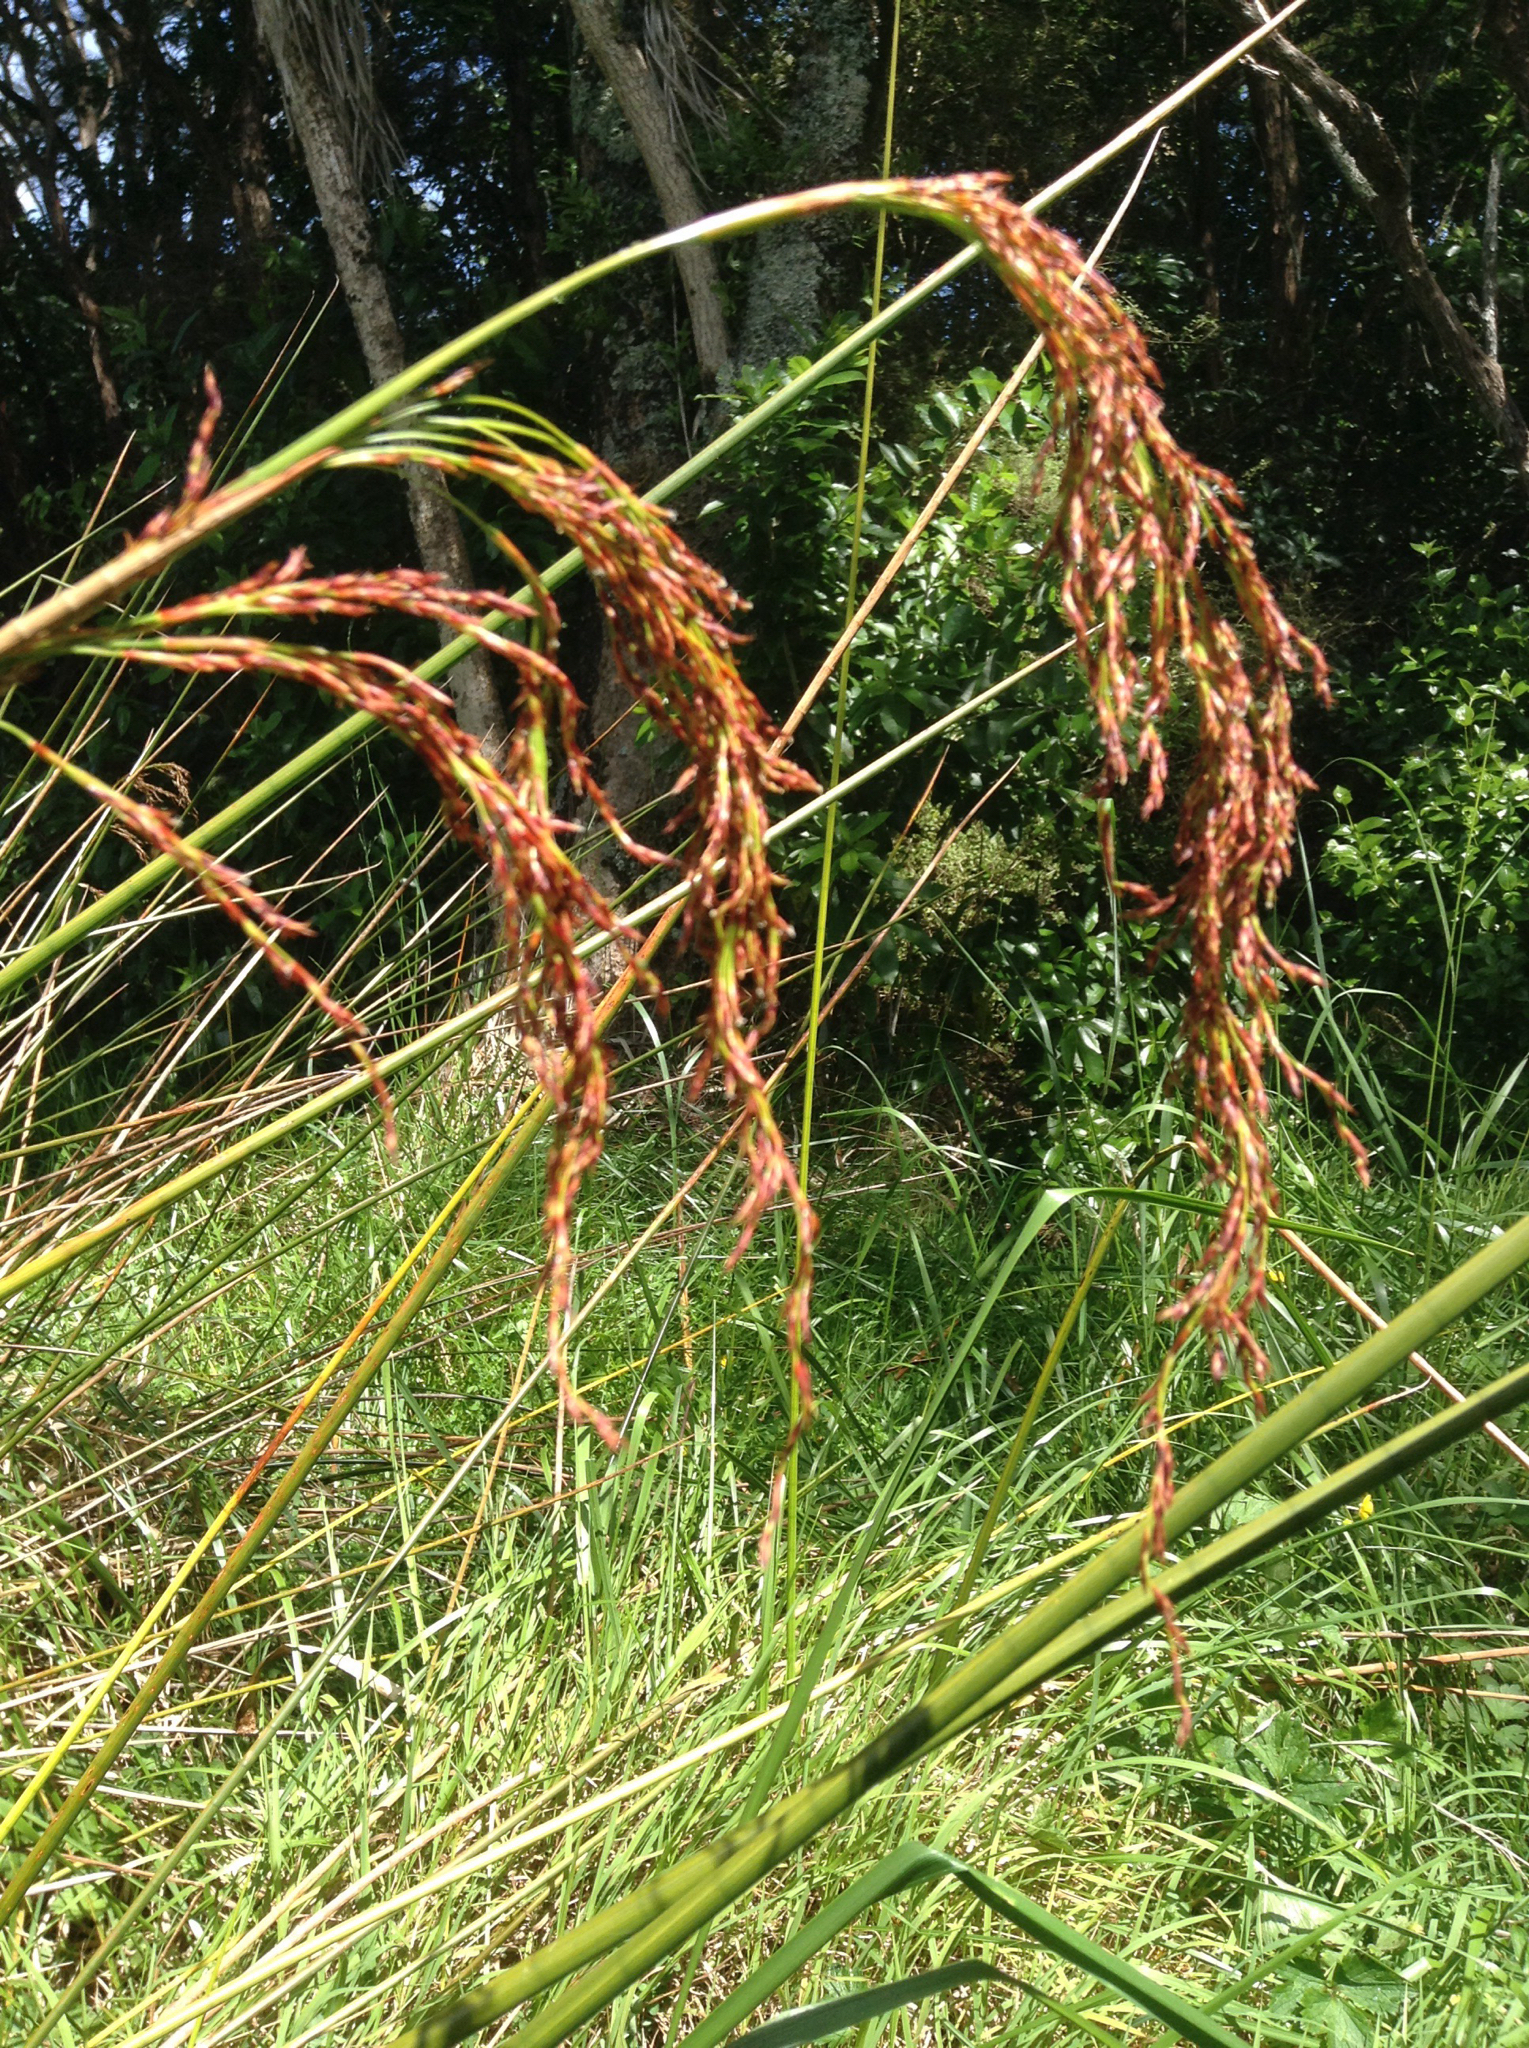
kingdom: Plantae
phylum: Tracheophyta
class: Liliopsida
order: Poales
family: Cyperaceae
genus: Machaerina
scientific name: Machaerina articulata
